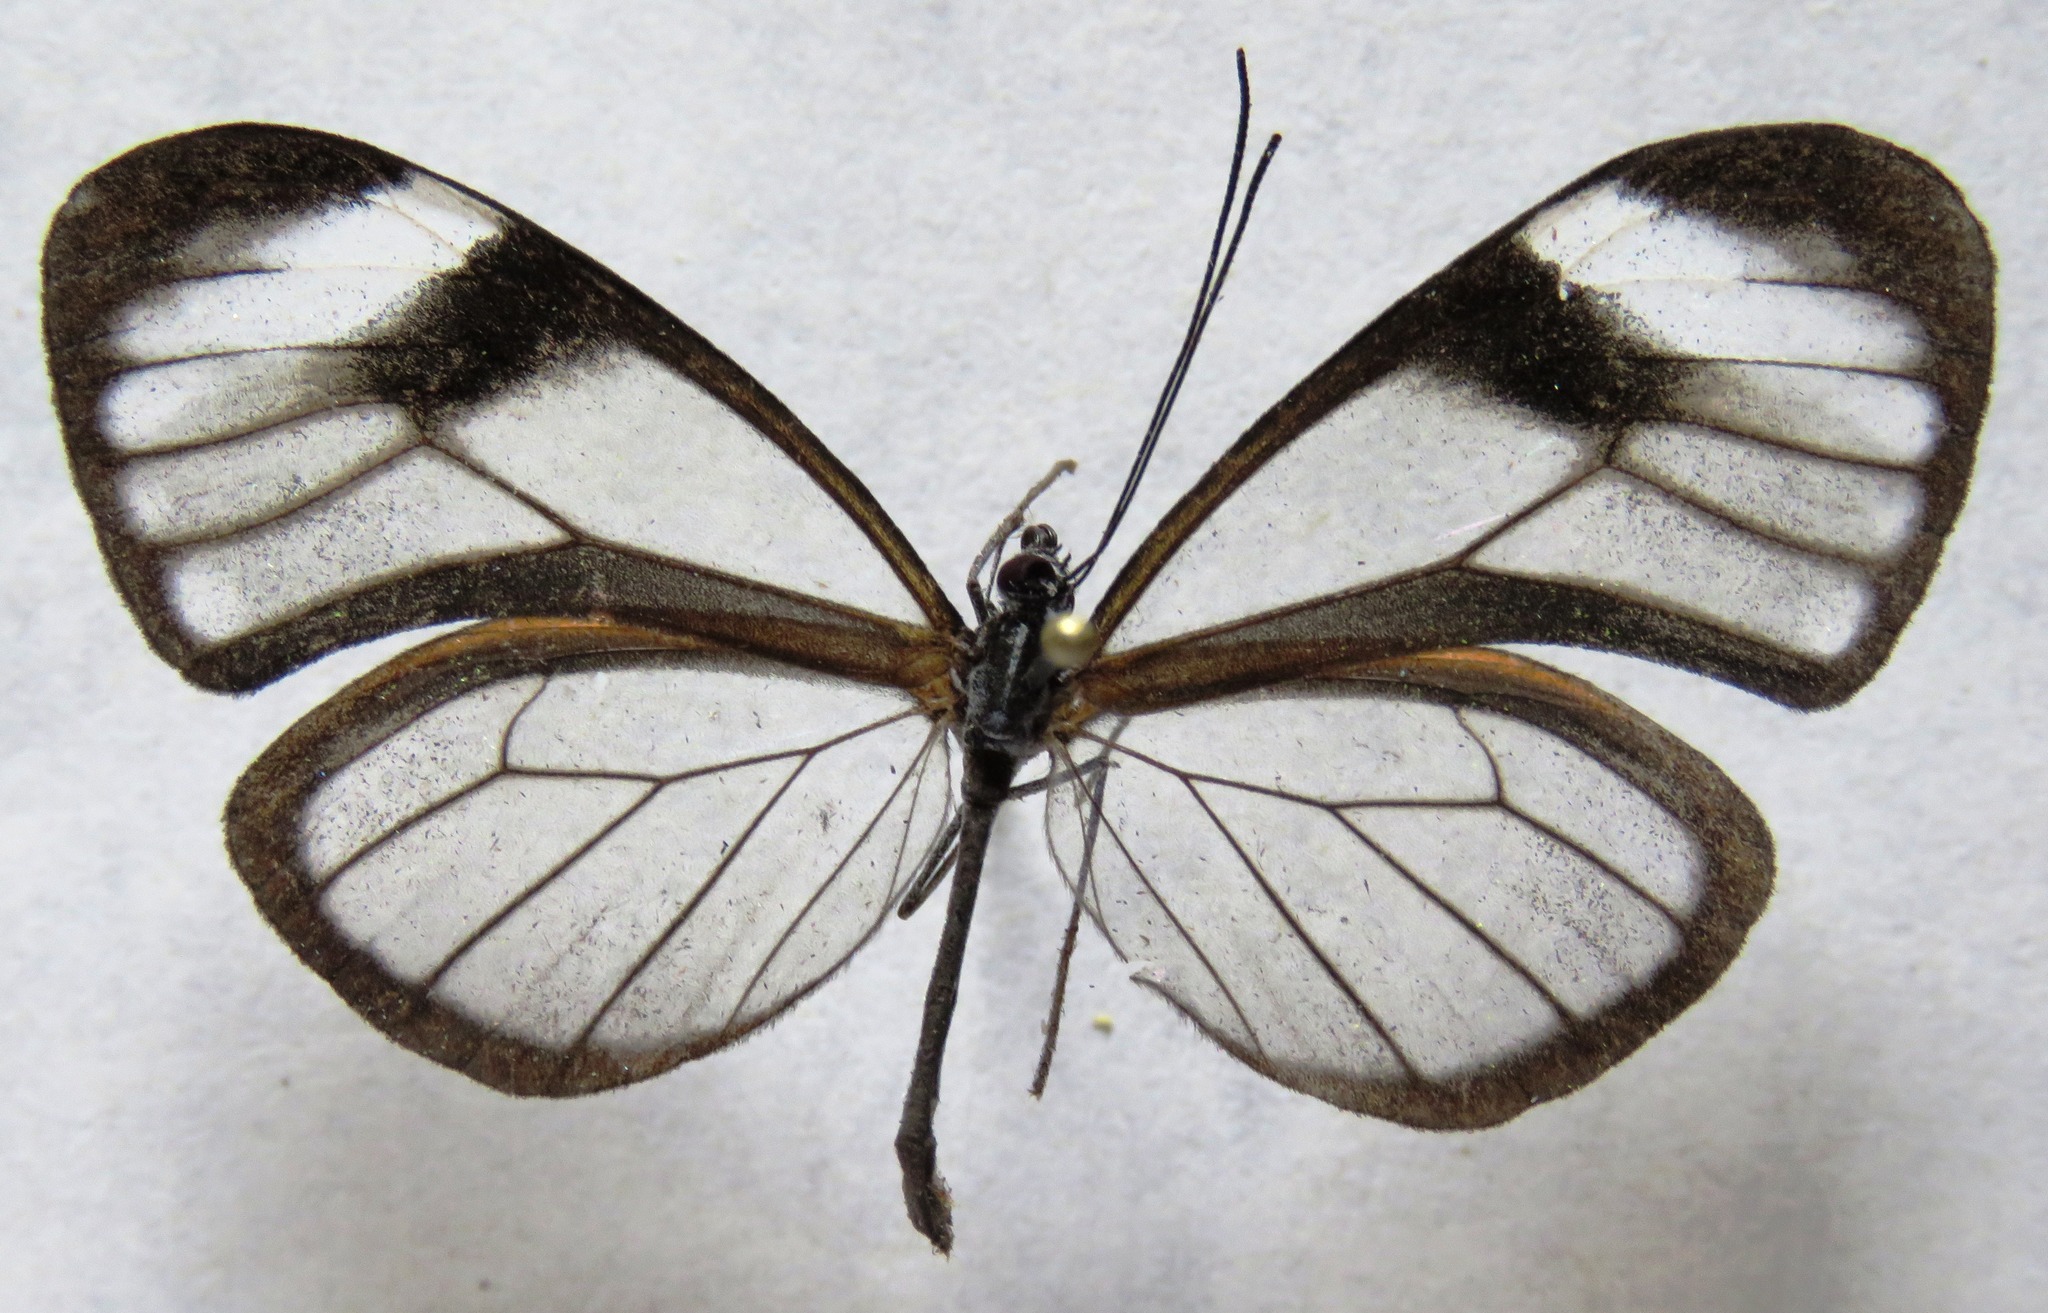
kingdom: Animalia
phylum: Arthropoda
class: Insecta
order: Lepidoptera
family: Nymphalidae
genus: Hypoleria
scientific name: Hypoleria lavinia
